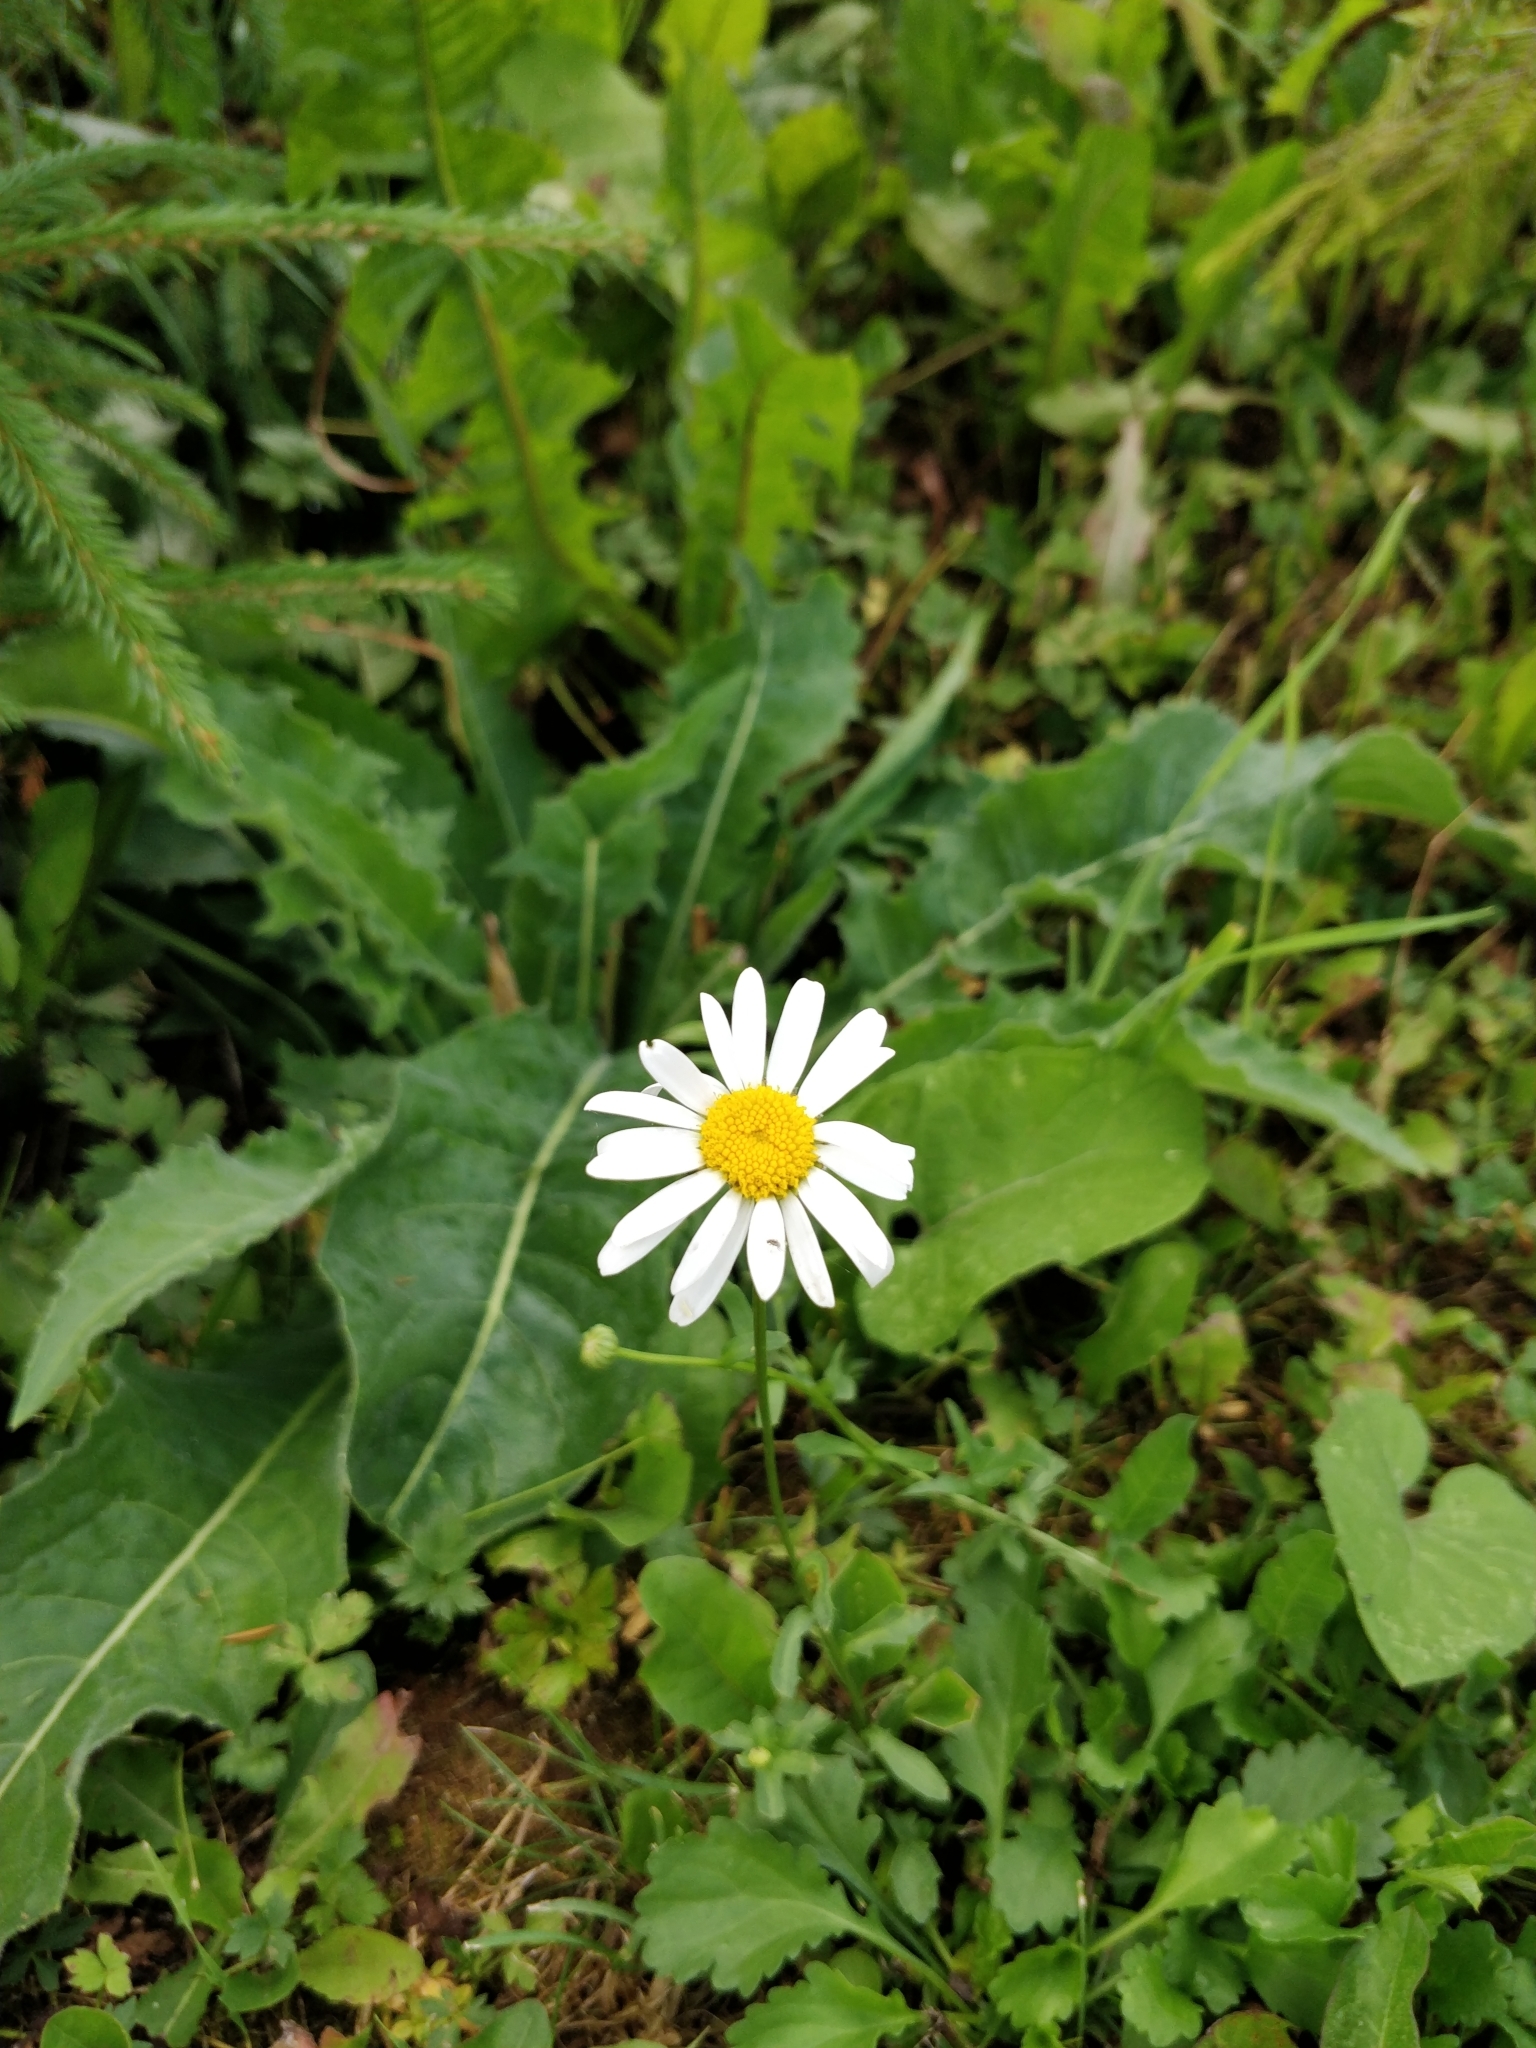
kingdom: Plantae
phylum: Tracheophyta
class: Magnoliopsida
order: Asterales
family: Asteraceae
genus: Leucanthemum
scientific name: Leucanthemum vulgare
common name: Oxeye daisy
